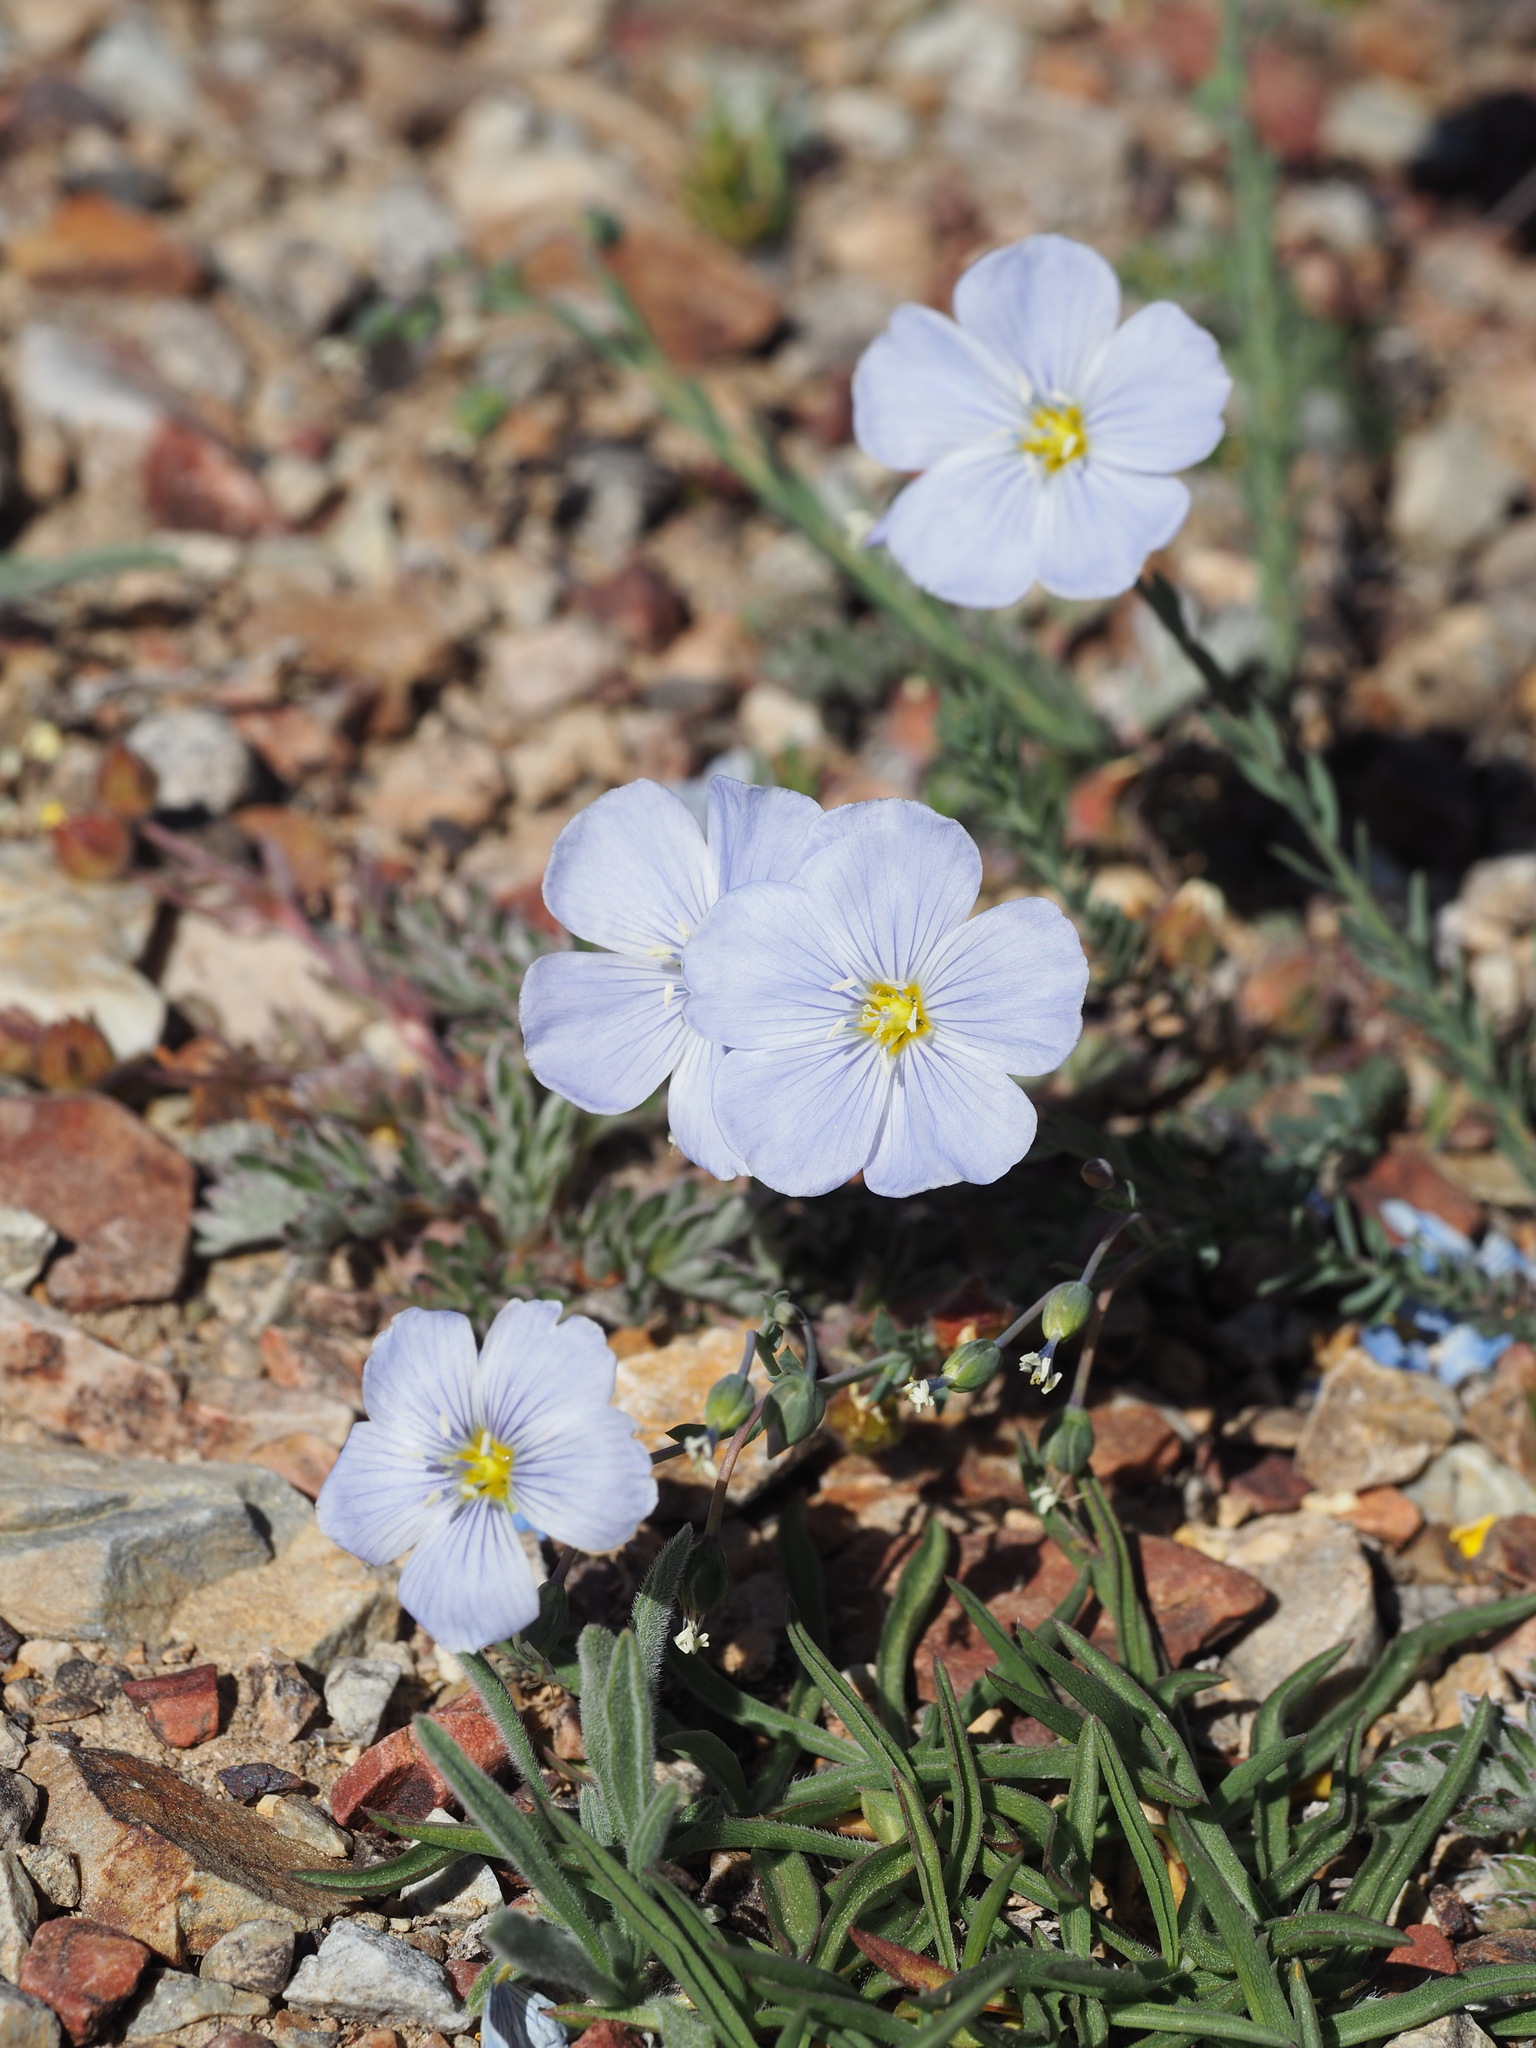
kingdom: Plantae
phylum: Tracheophyta
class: Magnoliopsida
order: Malpighiales
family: Linaceae
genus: Linum
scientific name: Linum lewisii
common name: Prairie flax
